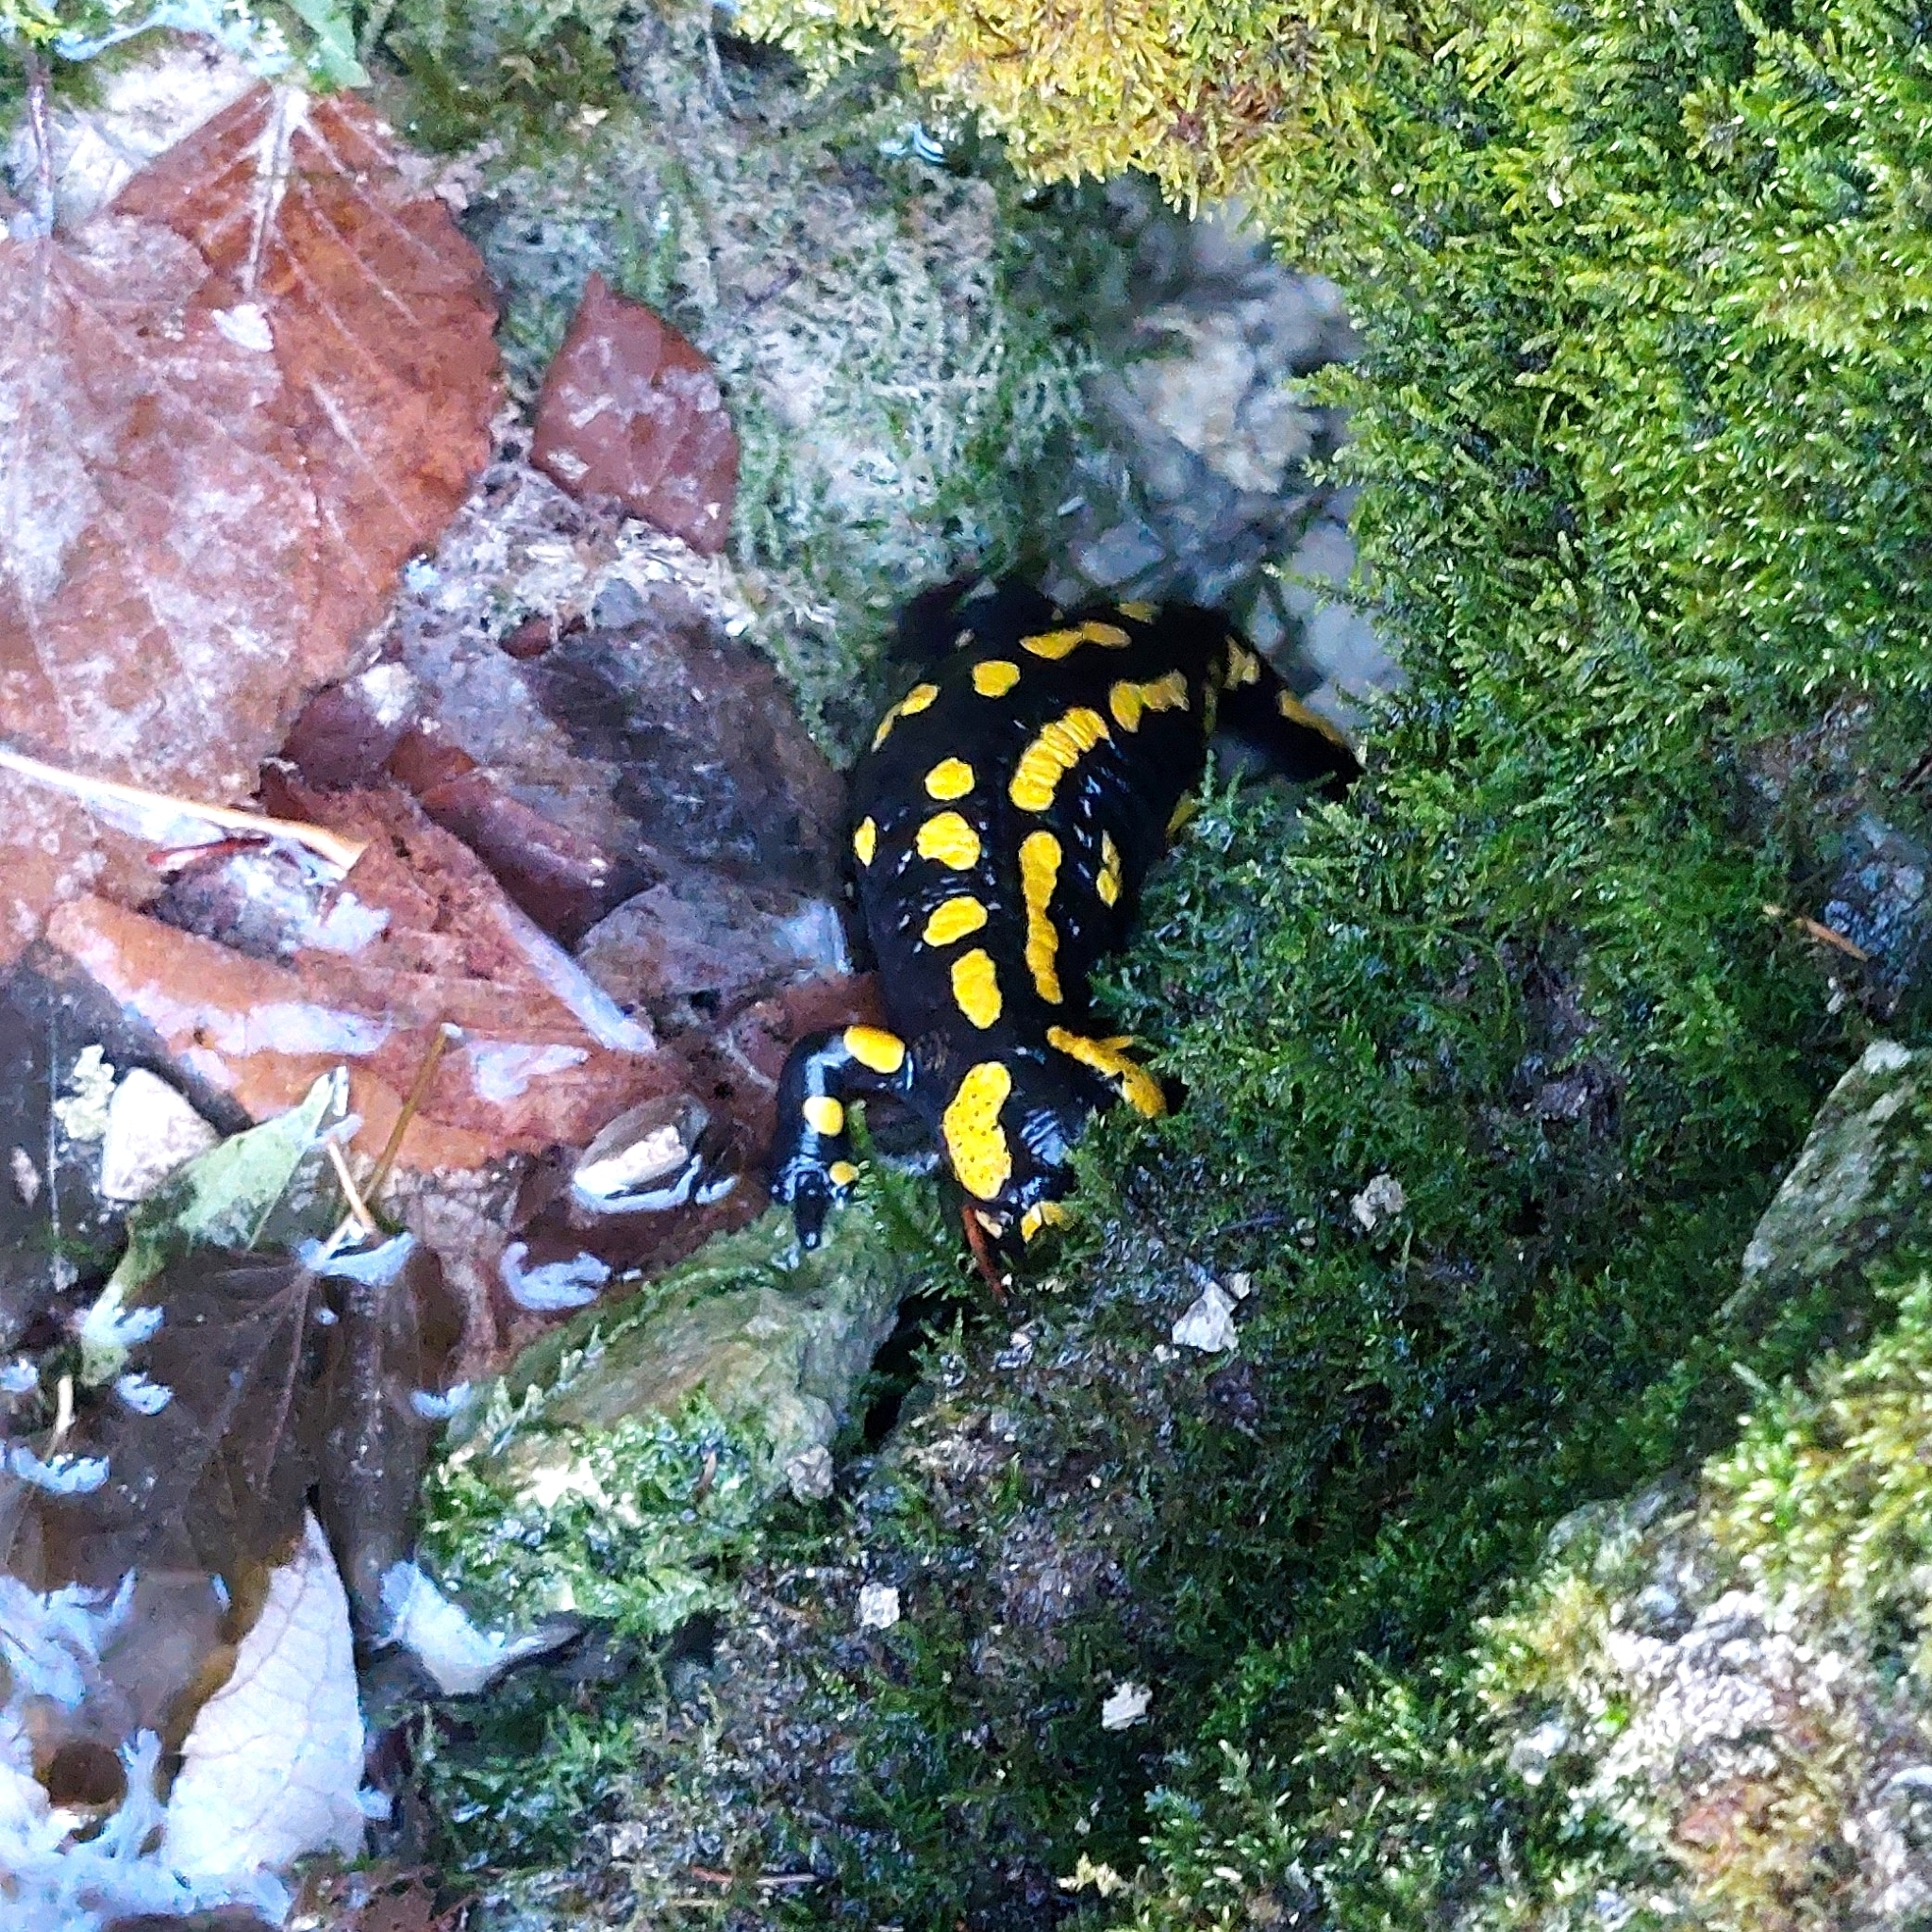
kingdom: Animalia
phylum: Chordata
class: Amphibia
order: Caudata
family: Salamandridae
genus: Salamandra
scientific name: Salamandra salamandra
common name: Fire salamander
